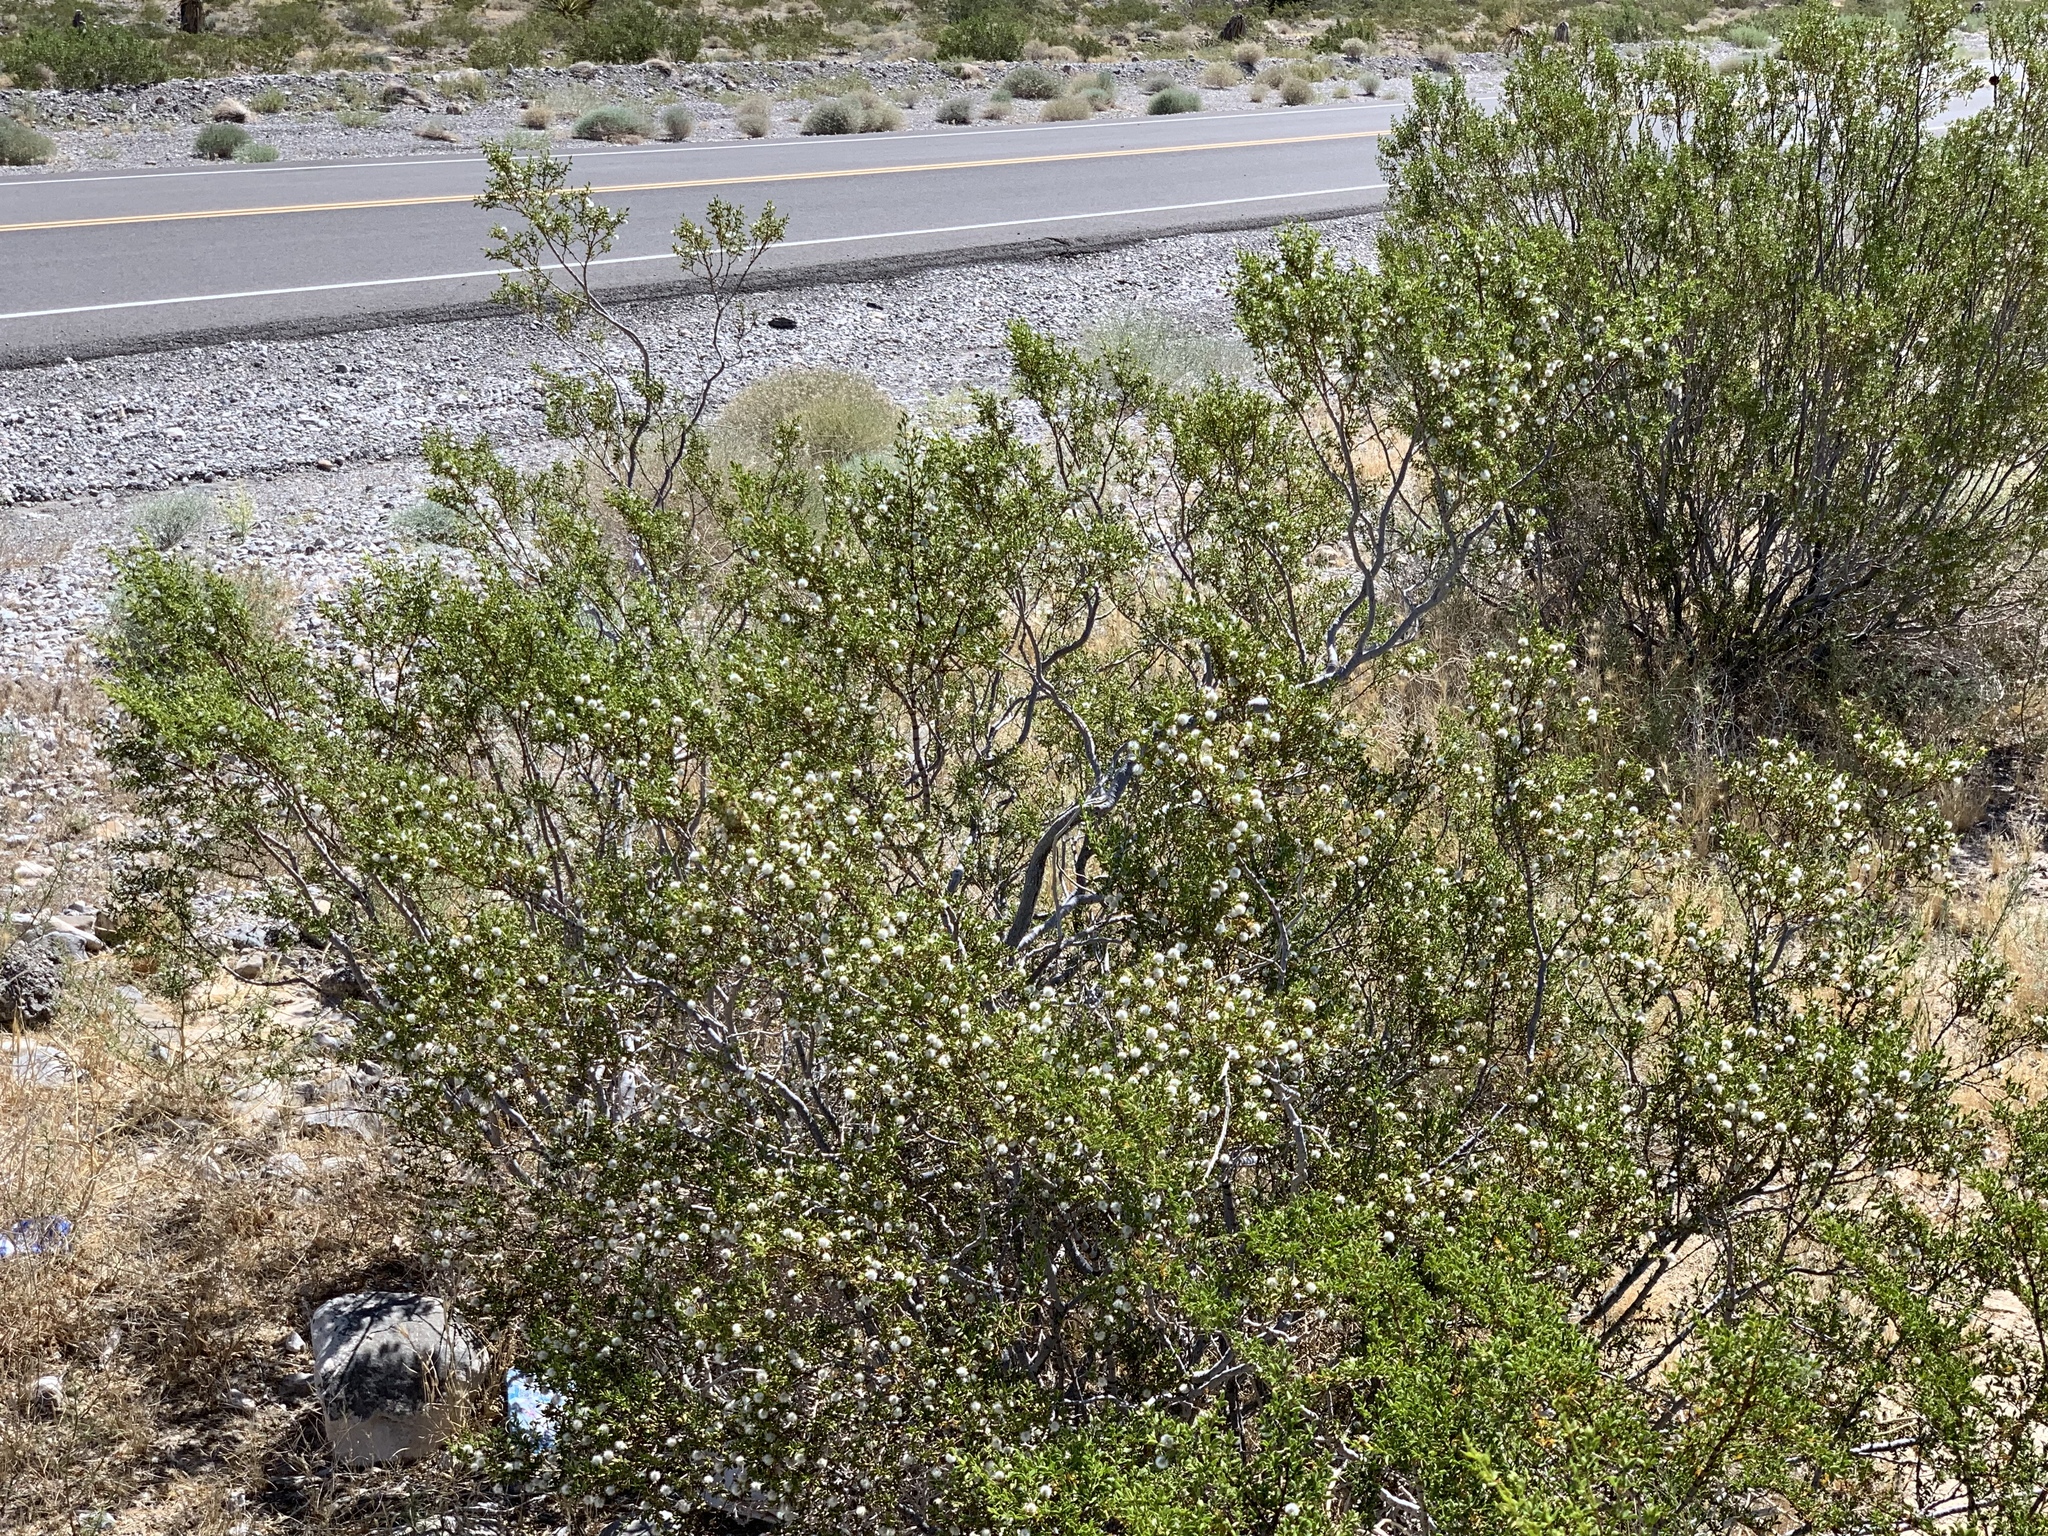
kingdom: Plantae
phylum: Tracheophyta
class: Magnoliopsida
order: Zygophyllales
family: Zygophyllaceae
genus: Larrea
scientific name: Larrea tridentata
